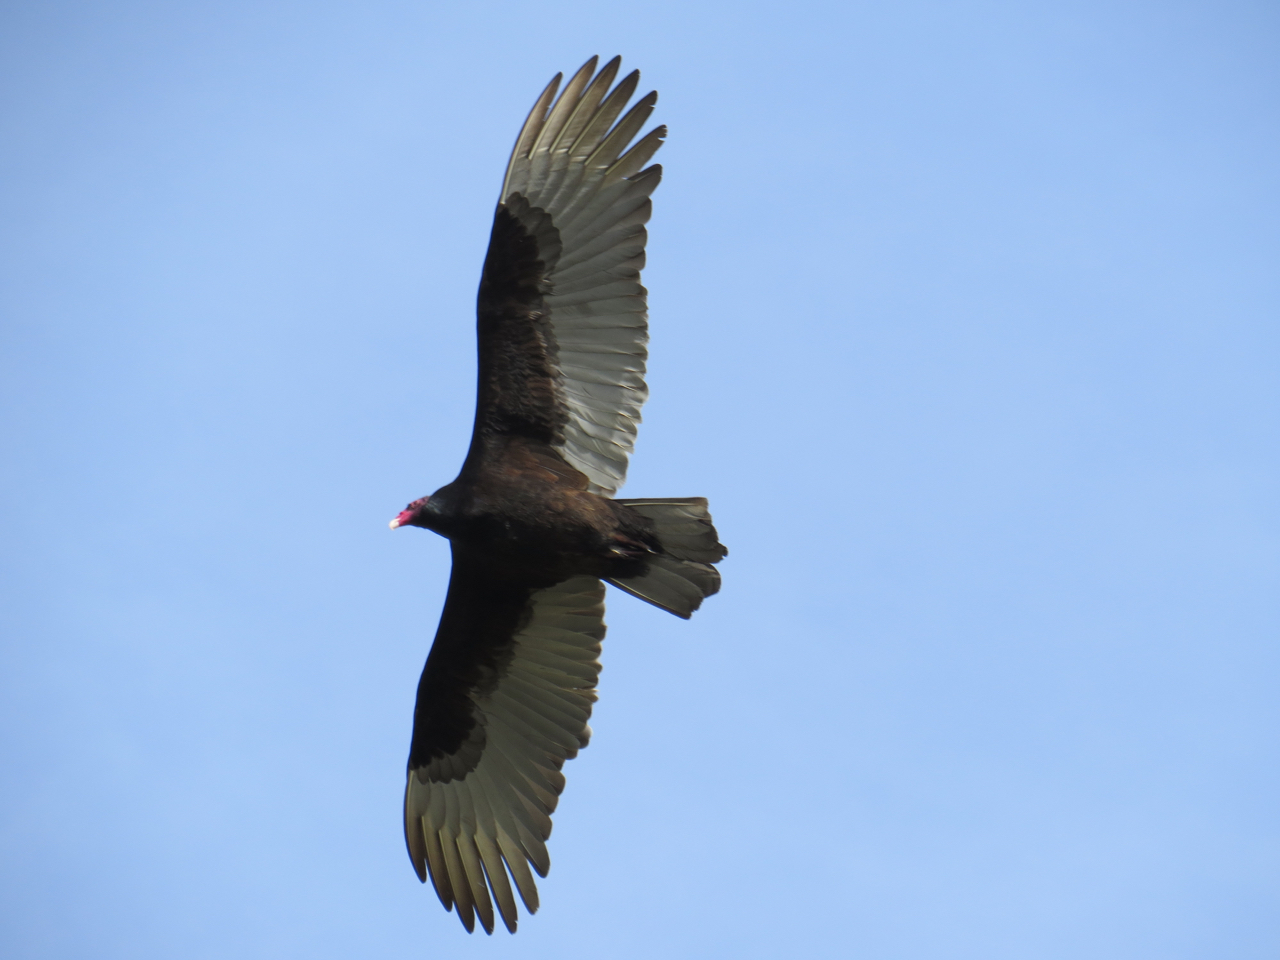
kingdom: Animalia
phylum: Chordata
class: Aves
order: Accipitriformes
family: Cathartidae
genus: Cathartes
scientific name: Cathartes aura
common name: Turkey vulture
